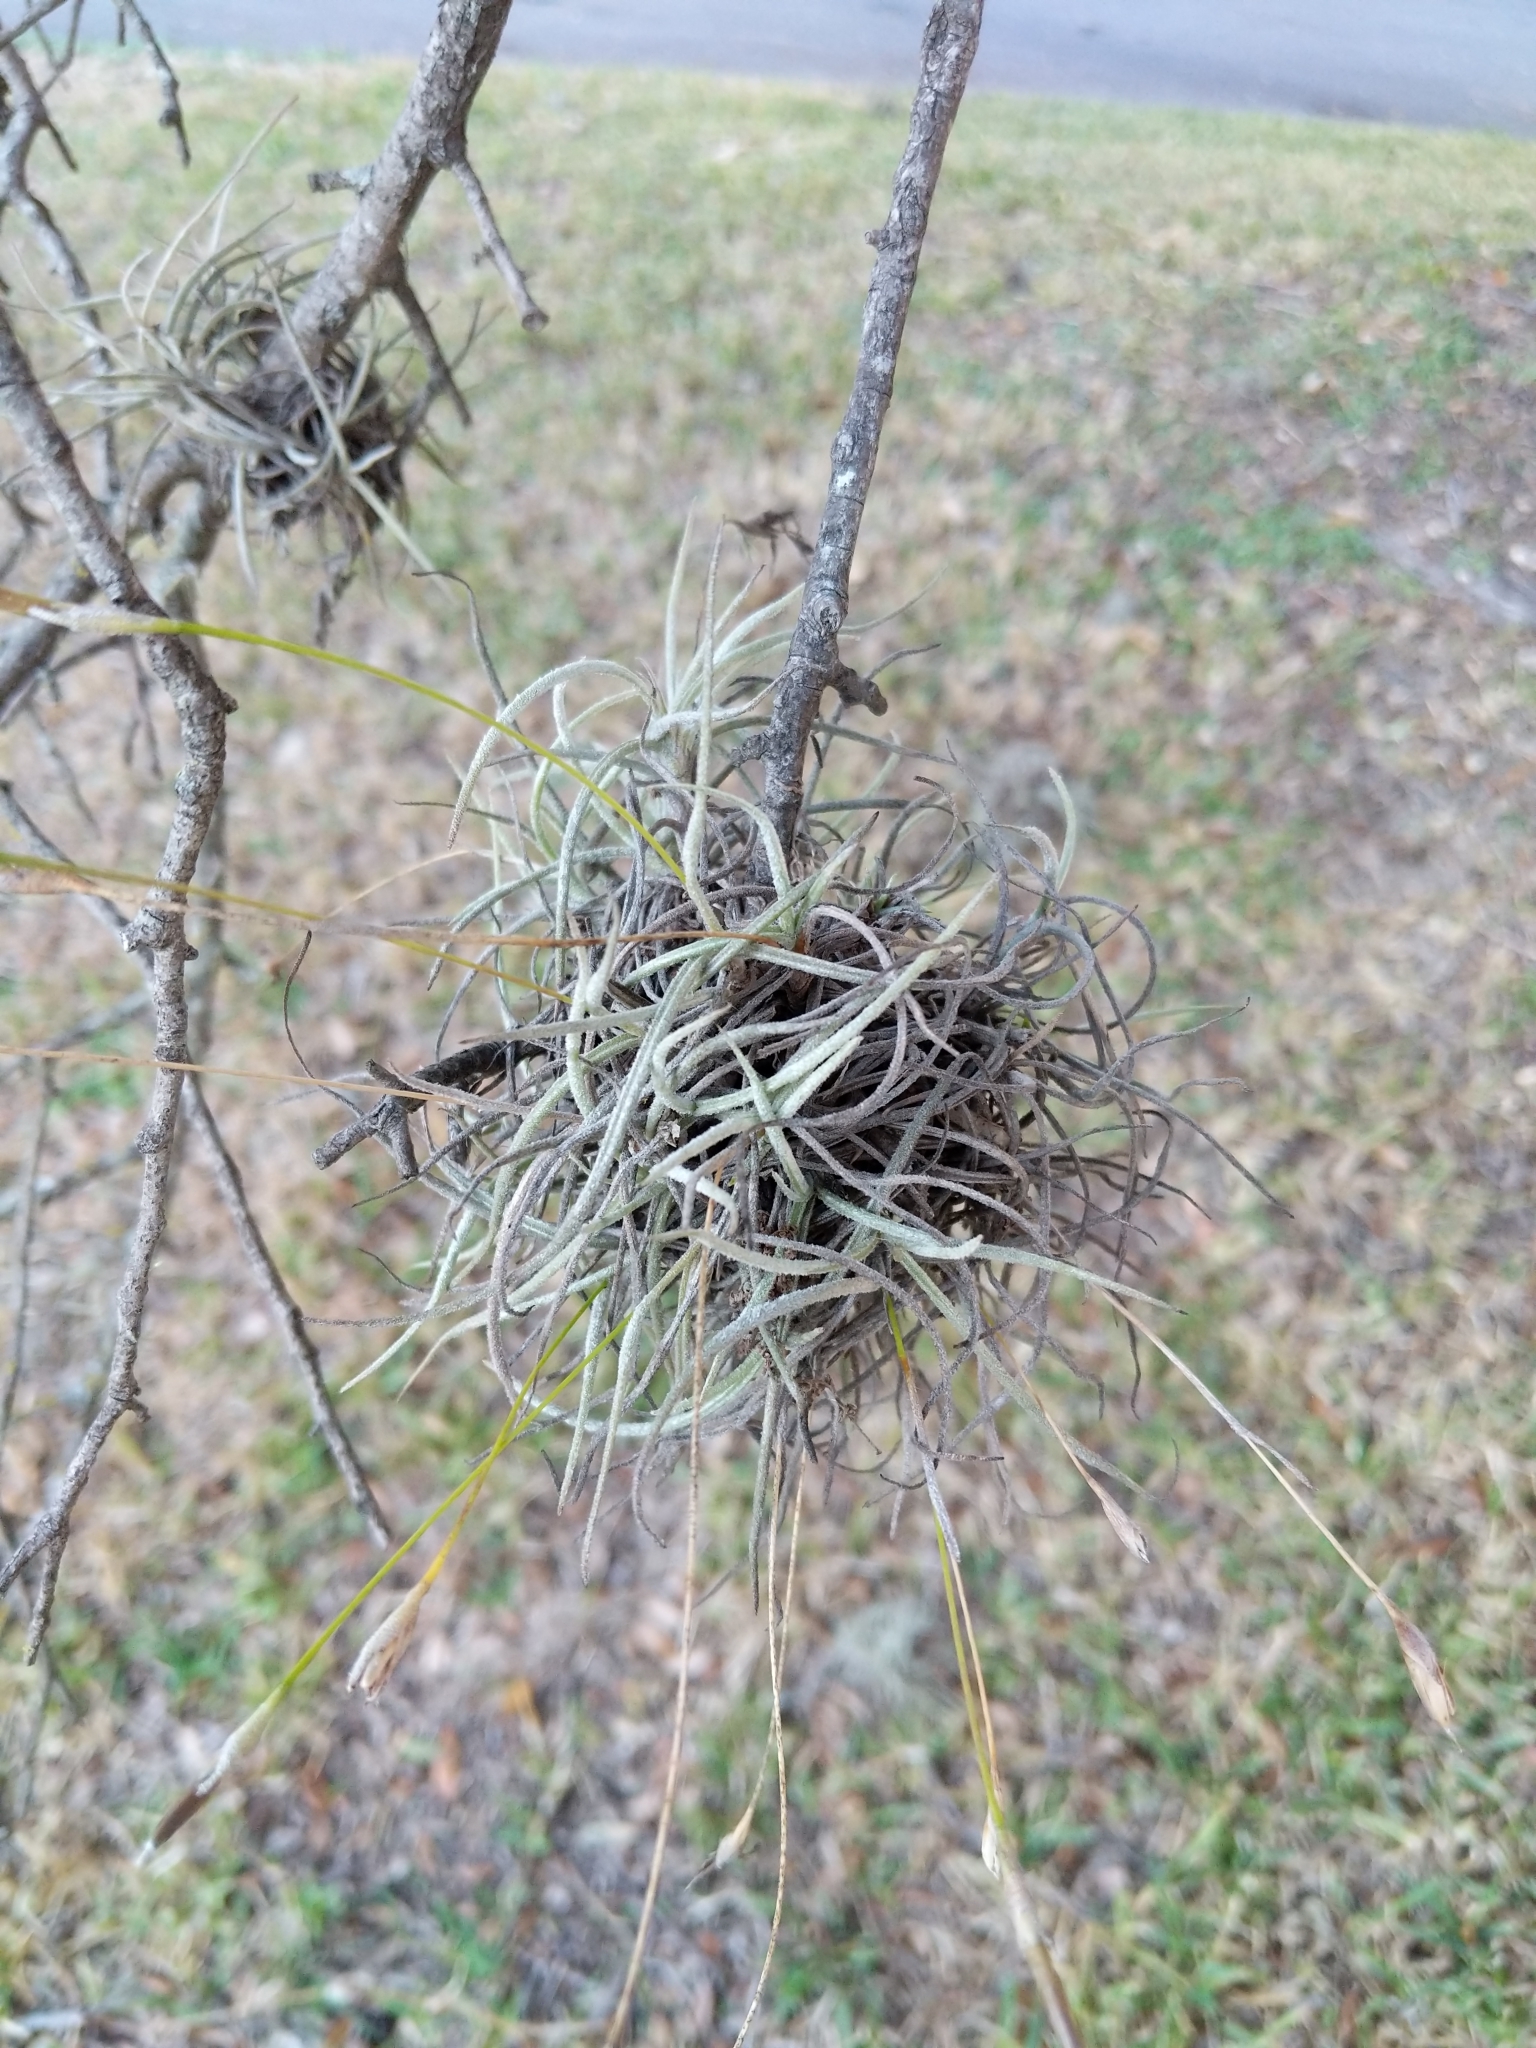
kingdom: Plantae
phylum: Tracheophyta
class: Liliopsida
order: Poales
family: Bromeliaceae
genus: Tillandsia
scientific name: Tillandsia recurvata
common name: Small ballmoss
